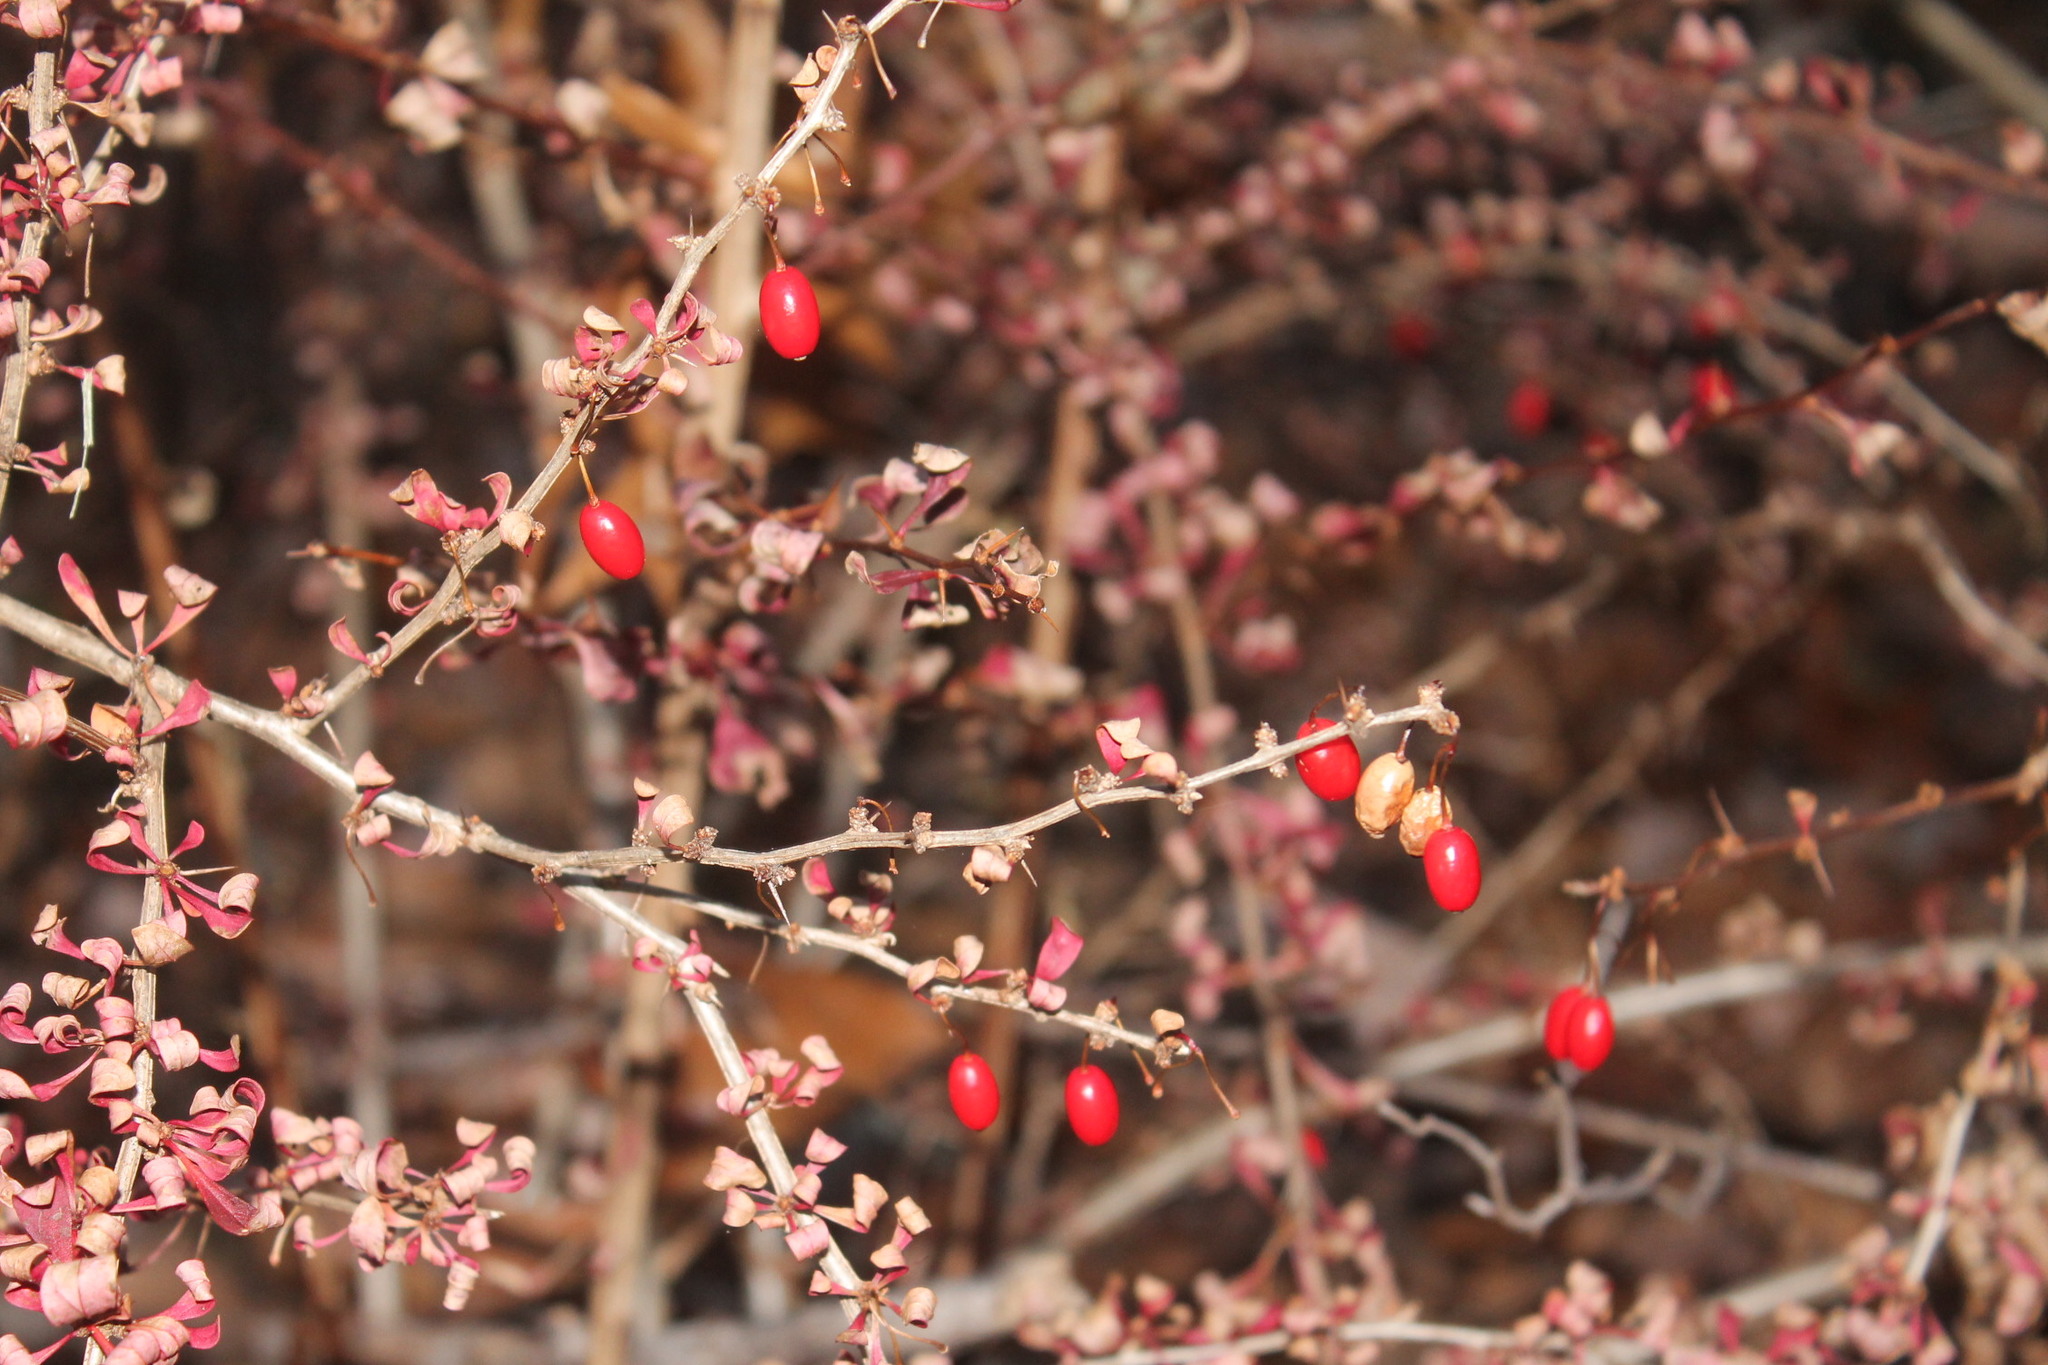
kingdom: Plantae
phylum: Tracheophyta
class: Magnoliopsida
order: Ranunculales
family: Berberidaceae
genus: Berberis
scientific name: Berberis thunbergii
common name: Japanese barberry
